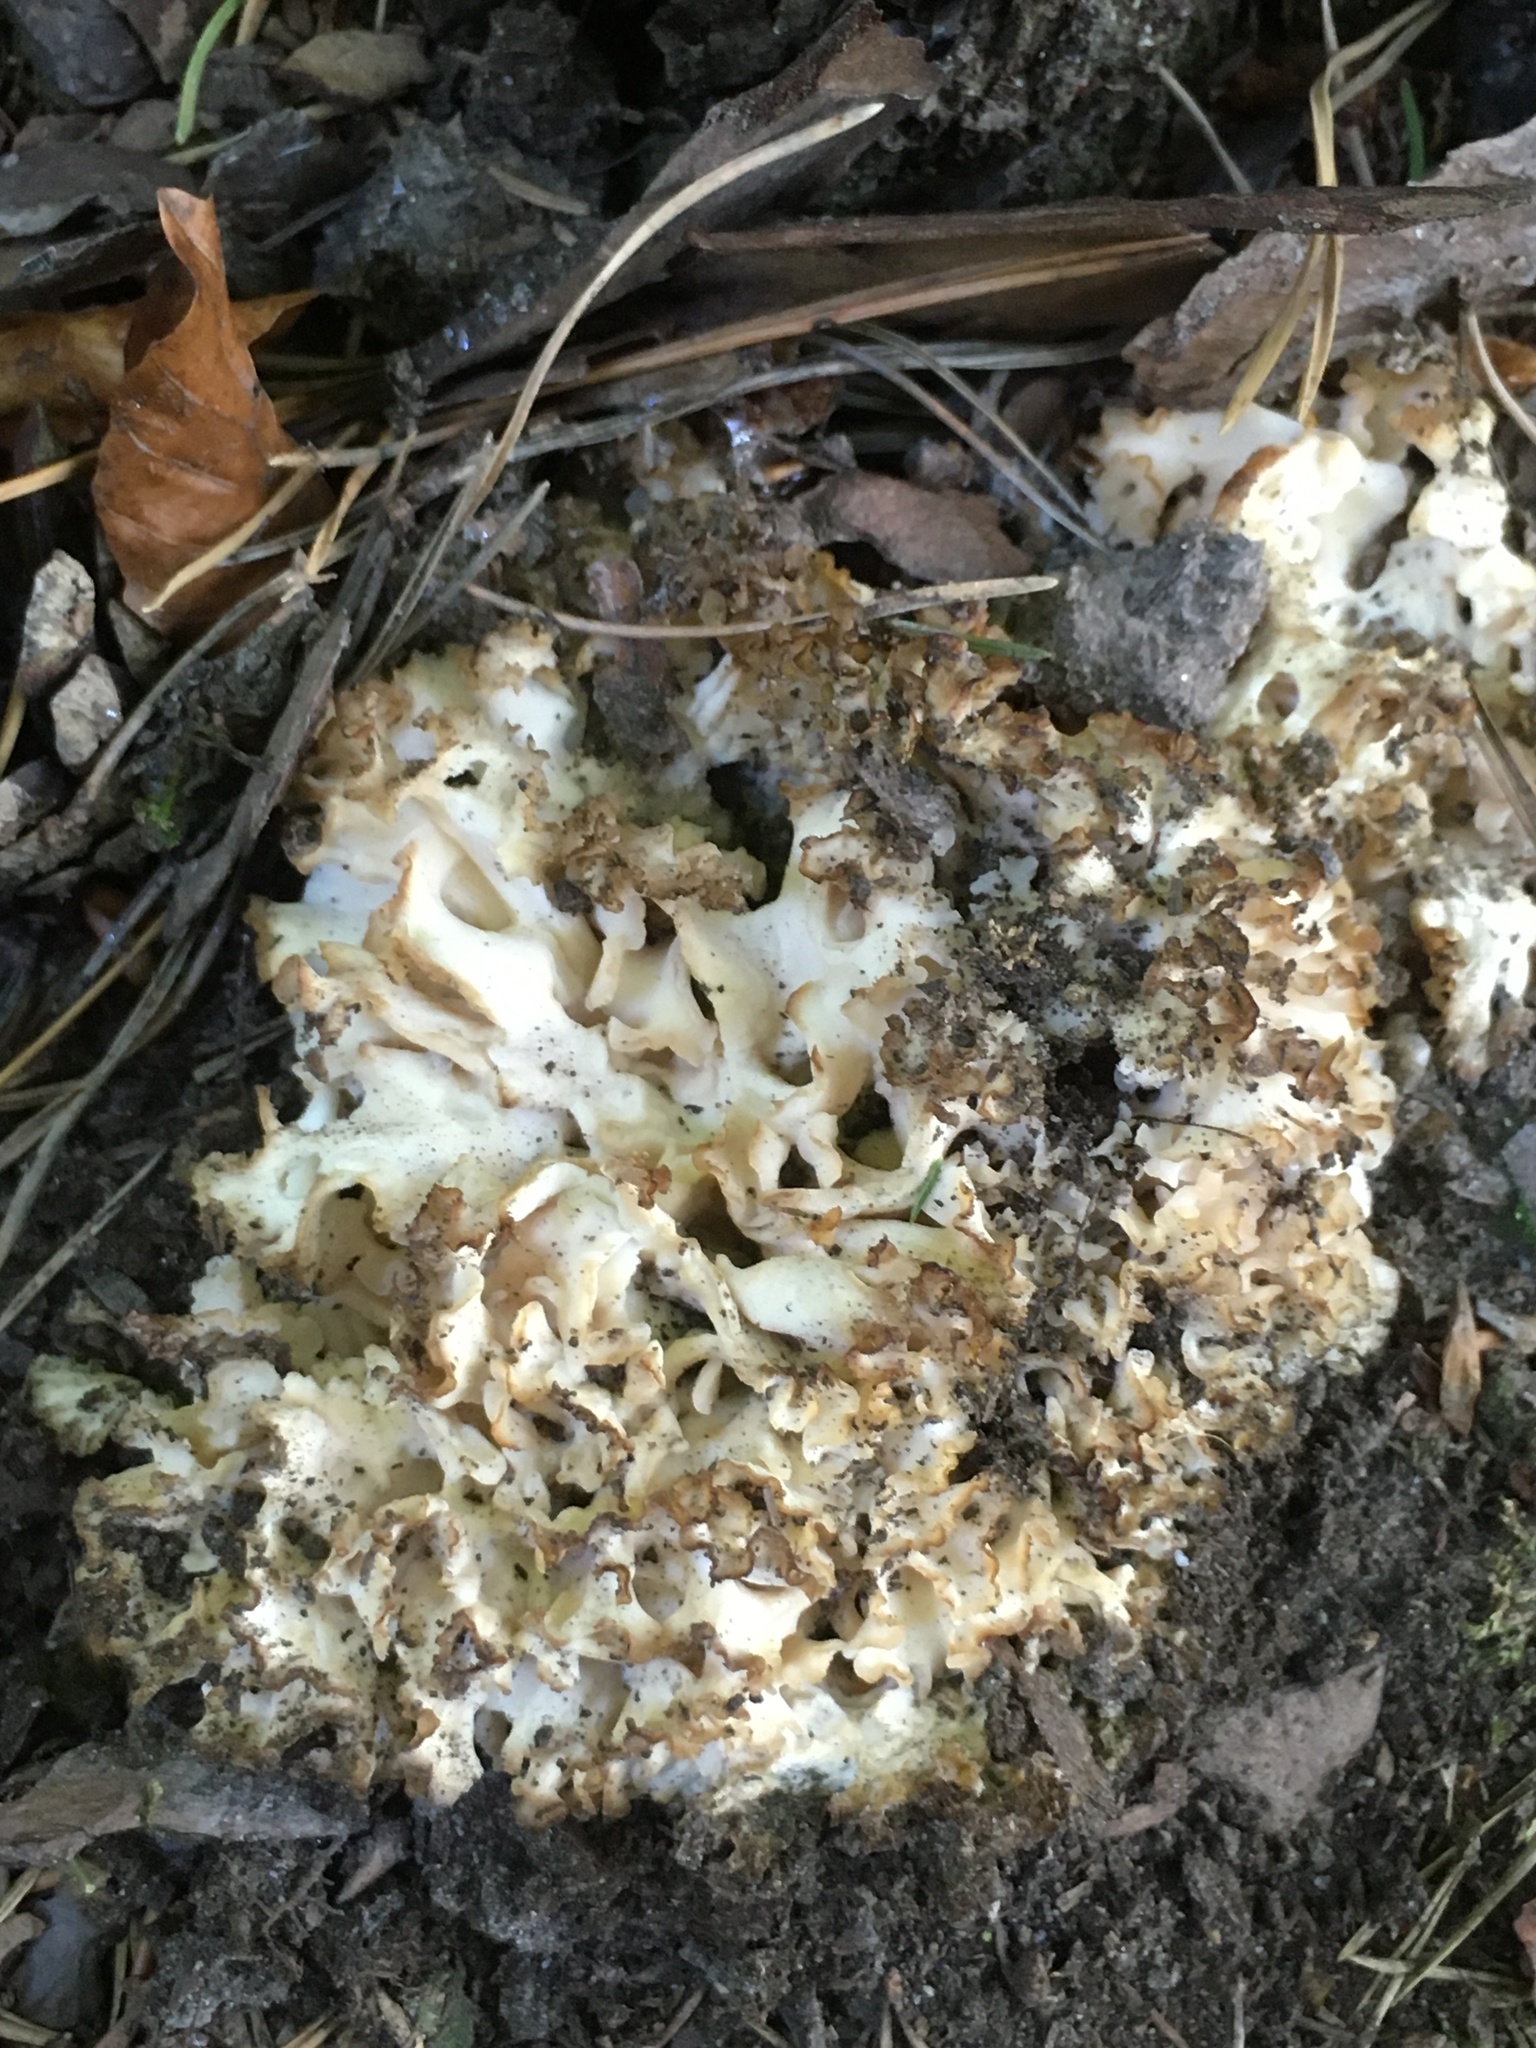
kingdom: Fungi
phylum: Basidiomycota
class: Agaricomycetes
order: Polyporales
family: Sparassidaceae
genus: Sparassis
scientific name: Sparassis crispa
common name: Brain fungus
